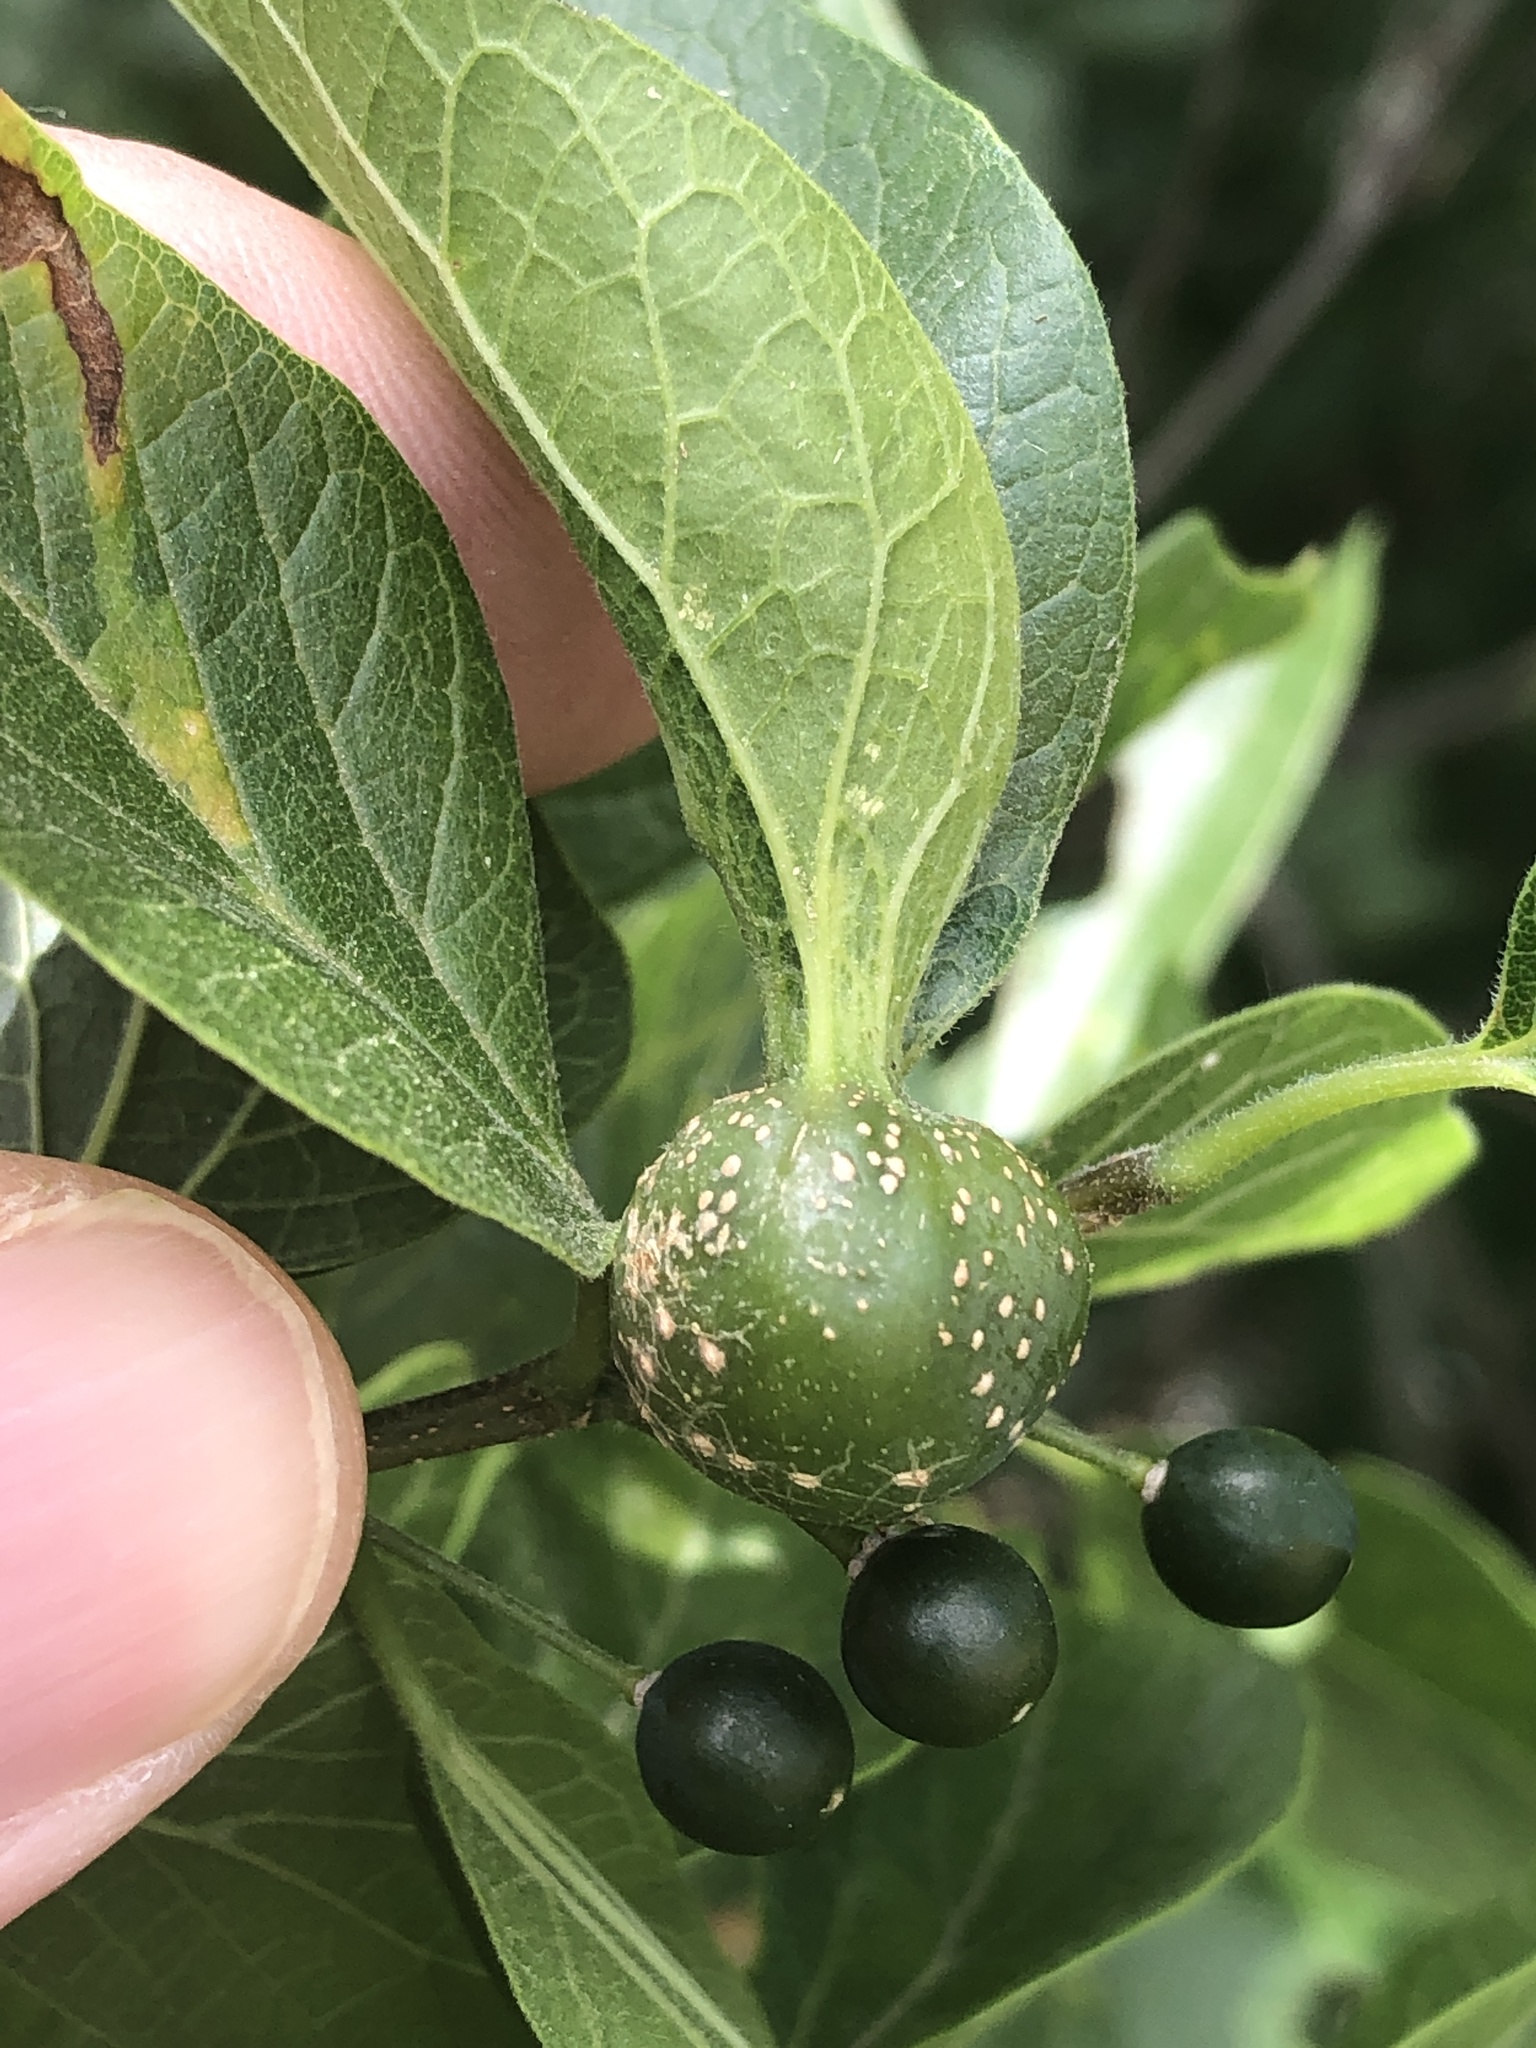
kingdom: Animalia
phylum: Arthropoda
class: Insecta
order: Hemiptera
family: Aphalaridae
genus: Pachypsylla
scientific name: Pachypsylla venusta
